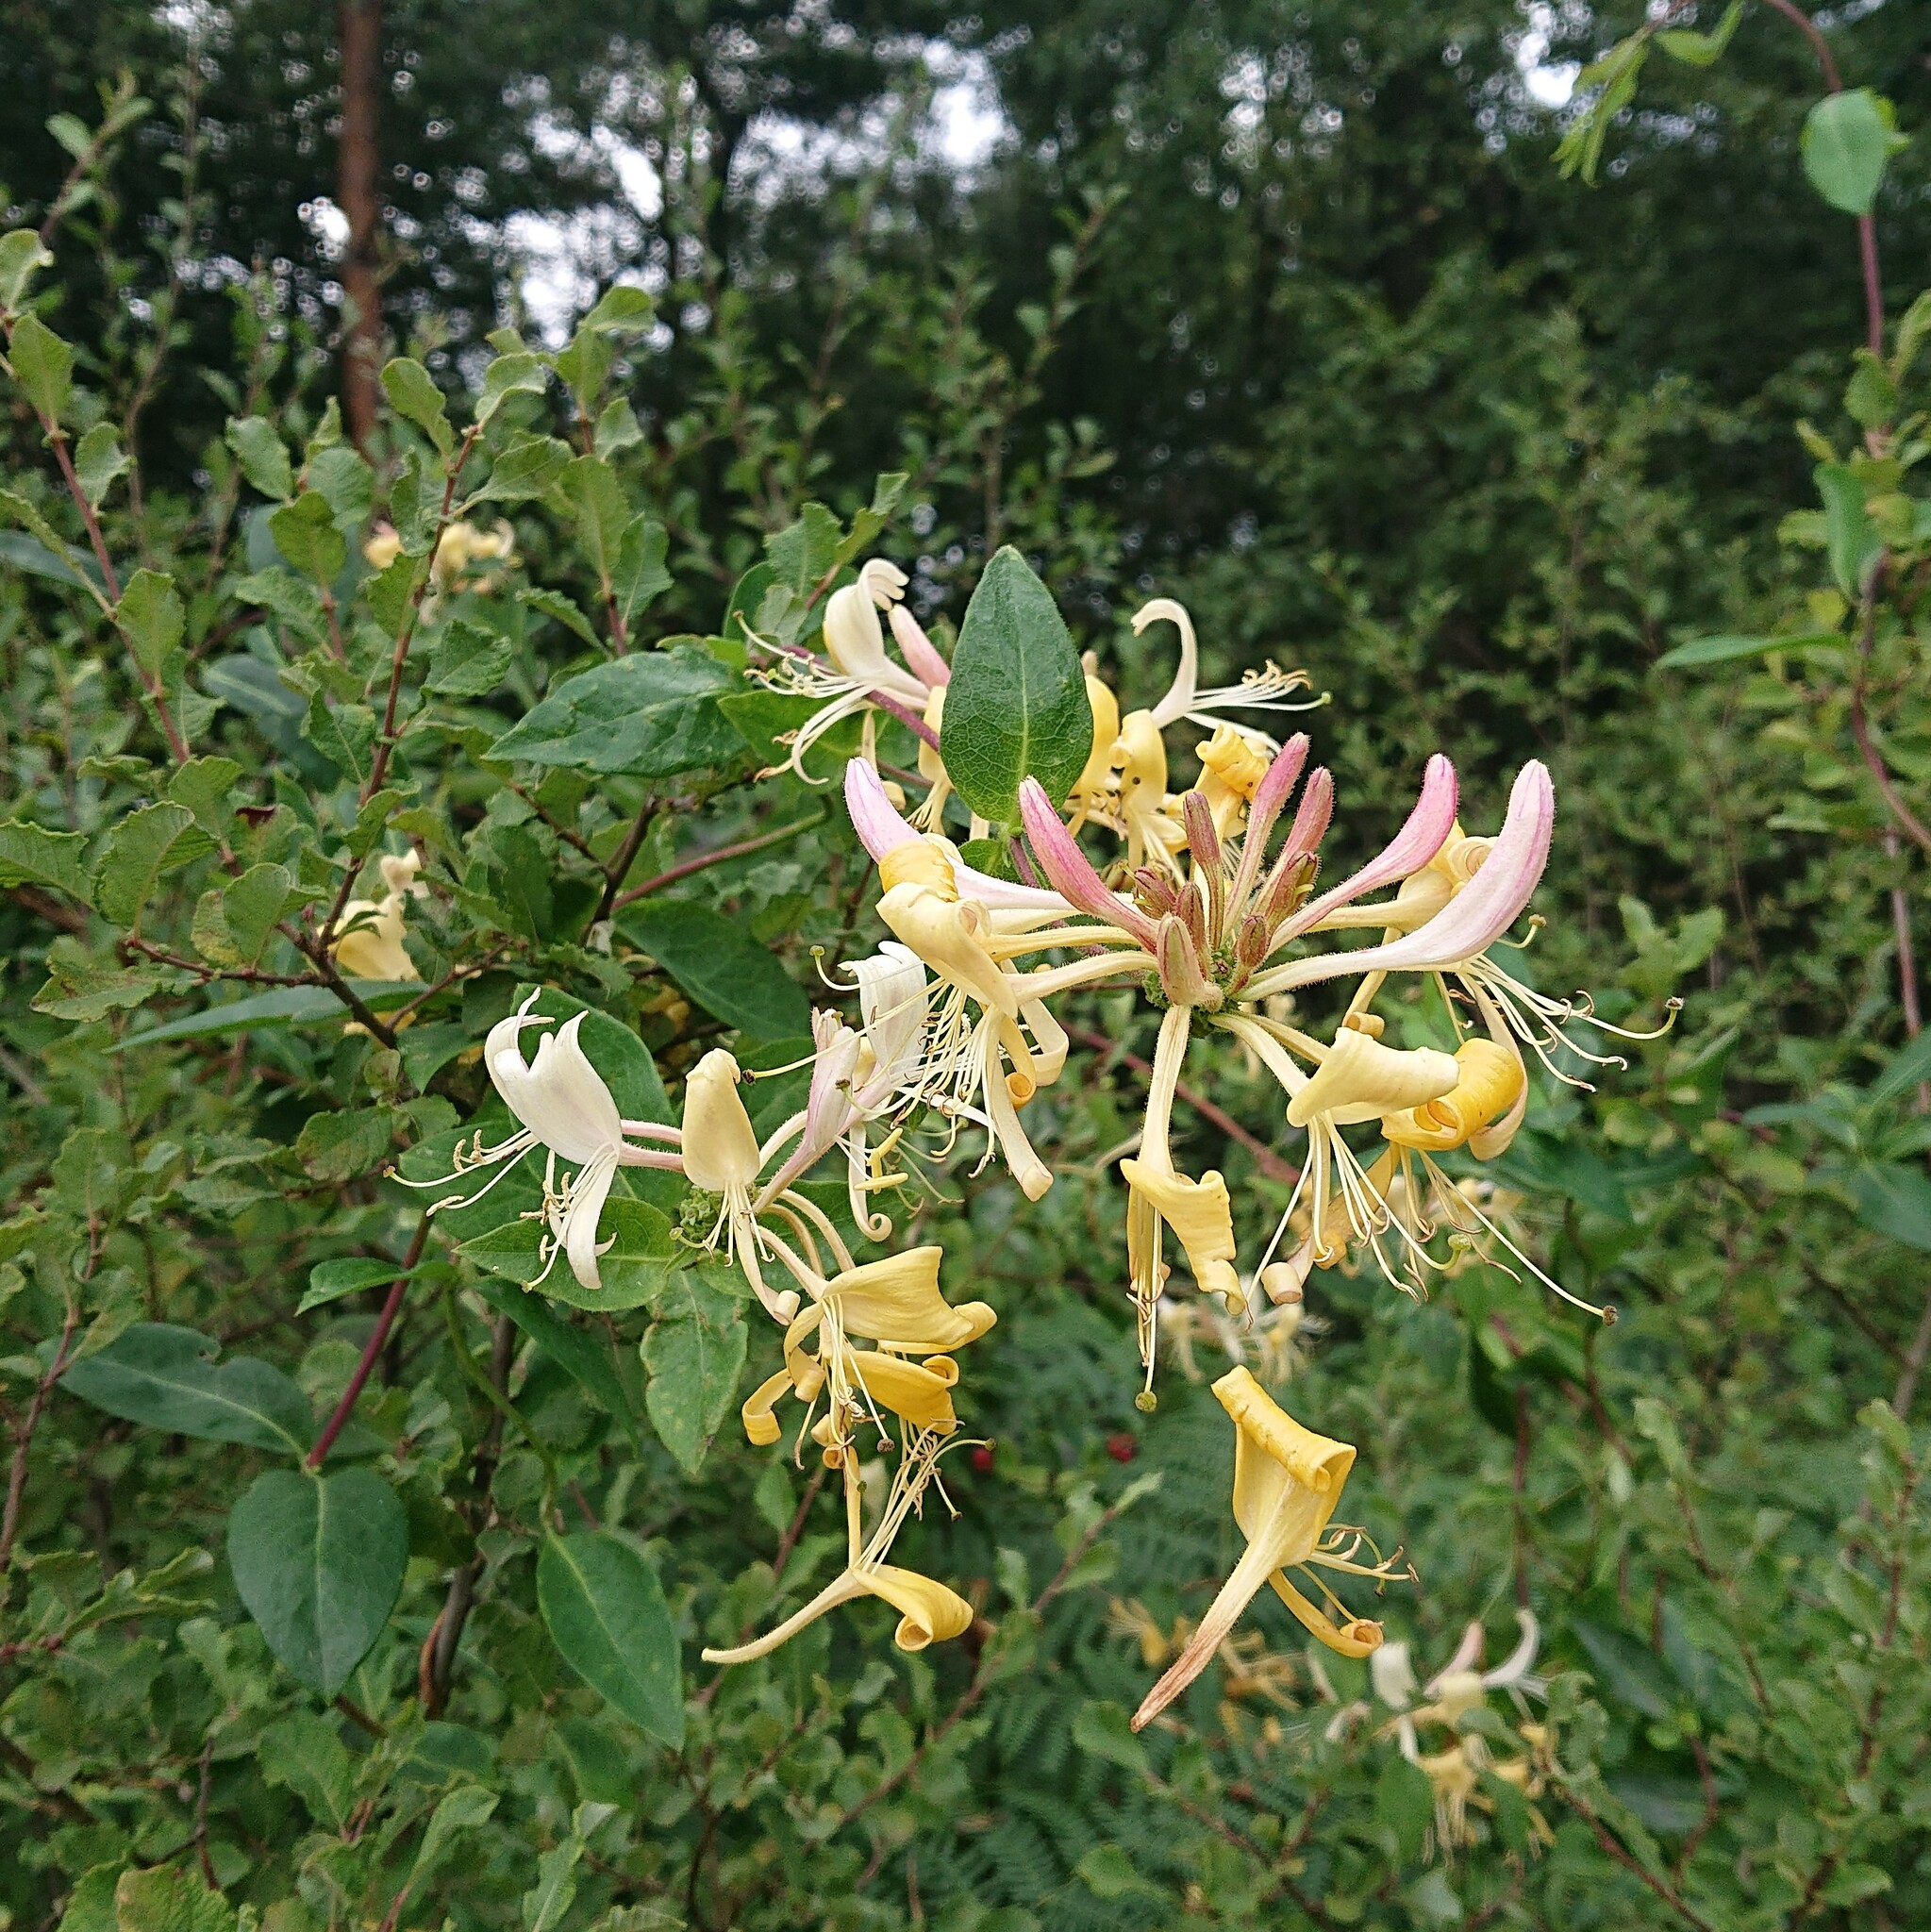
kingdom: Plantae
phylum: Tracheophyta
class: Magnoliopsida
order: Dipsacales
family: Caprifoliaceae
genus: Lonicera
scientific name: Lonicera periclymenum
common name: European honeysuckle
